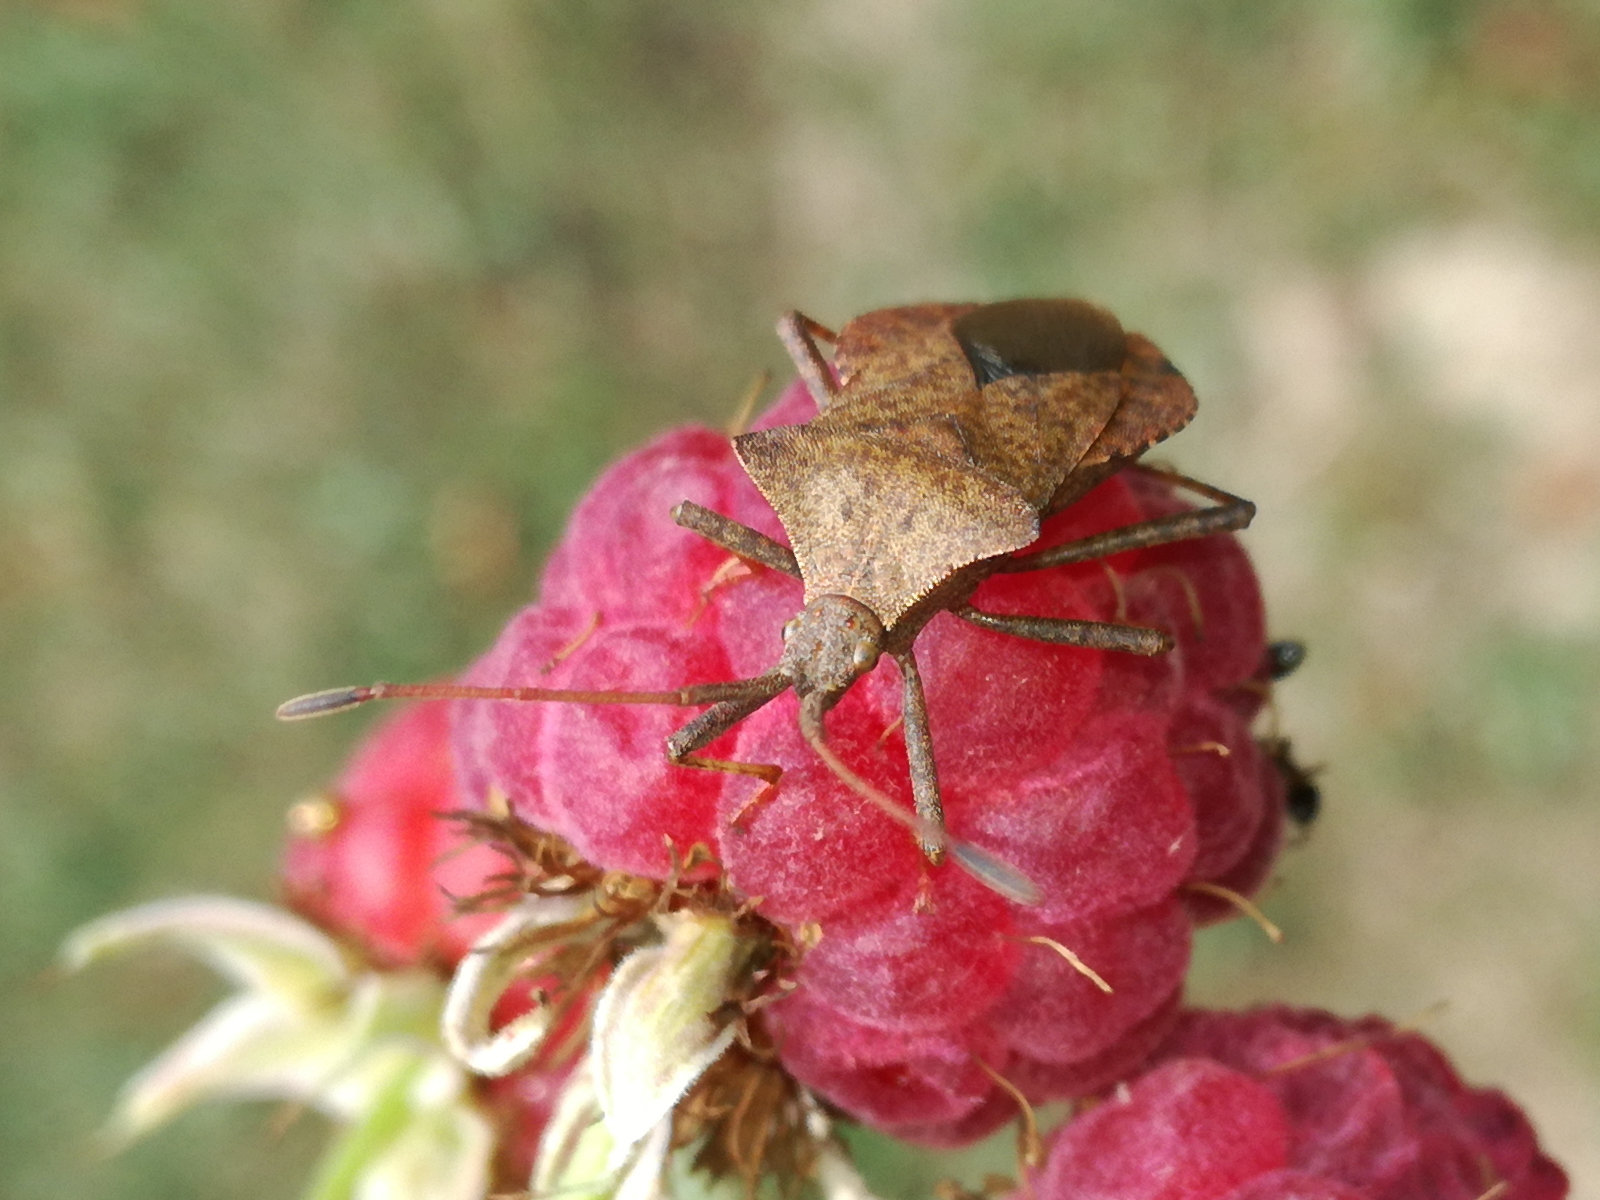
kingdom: Animalia
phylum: Arthropoda
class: Insecta
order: Hemiptera
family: Coreidae
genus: Coreus
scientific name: Coreus marginatus
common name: Dock bug
